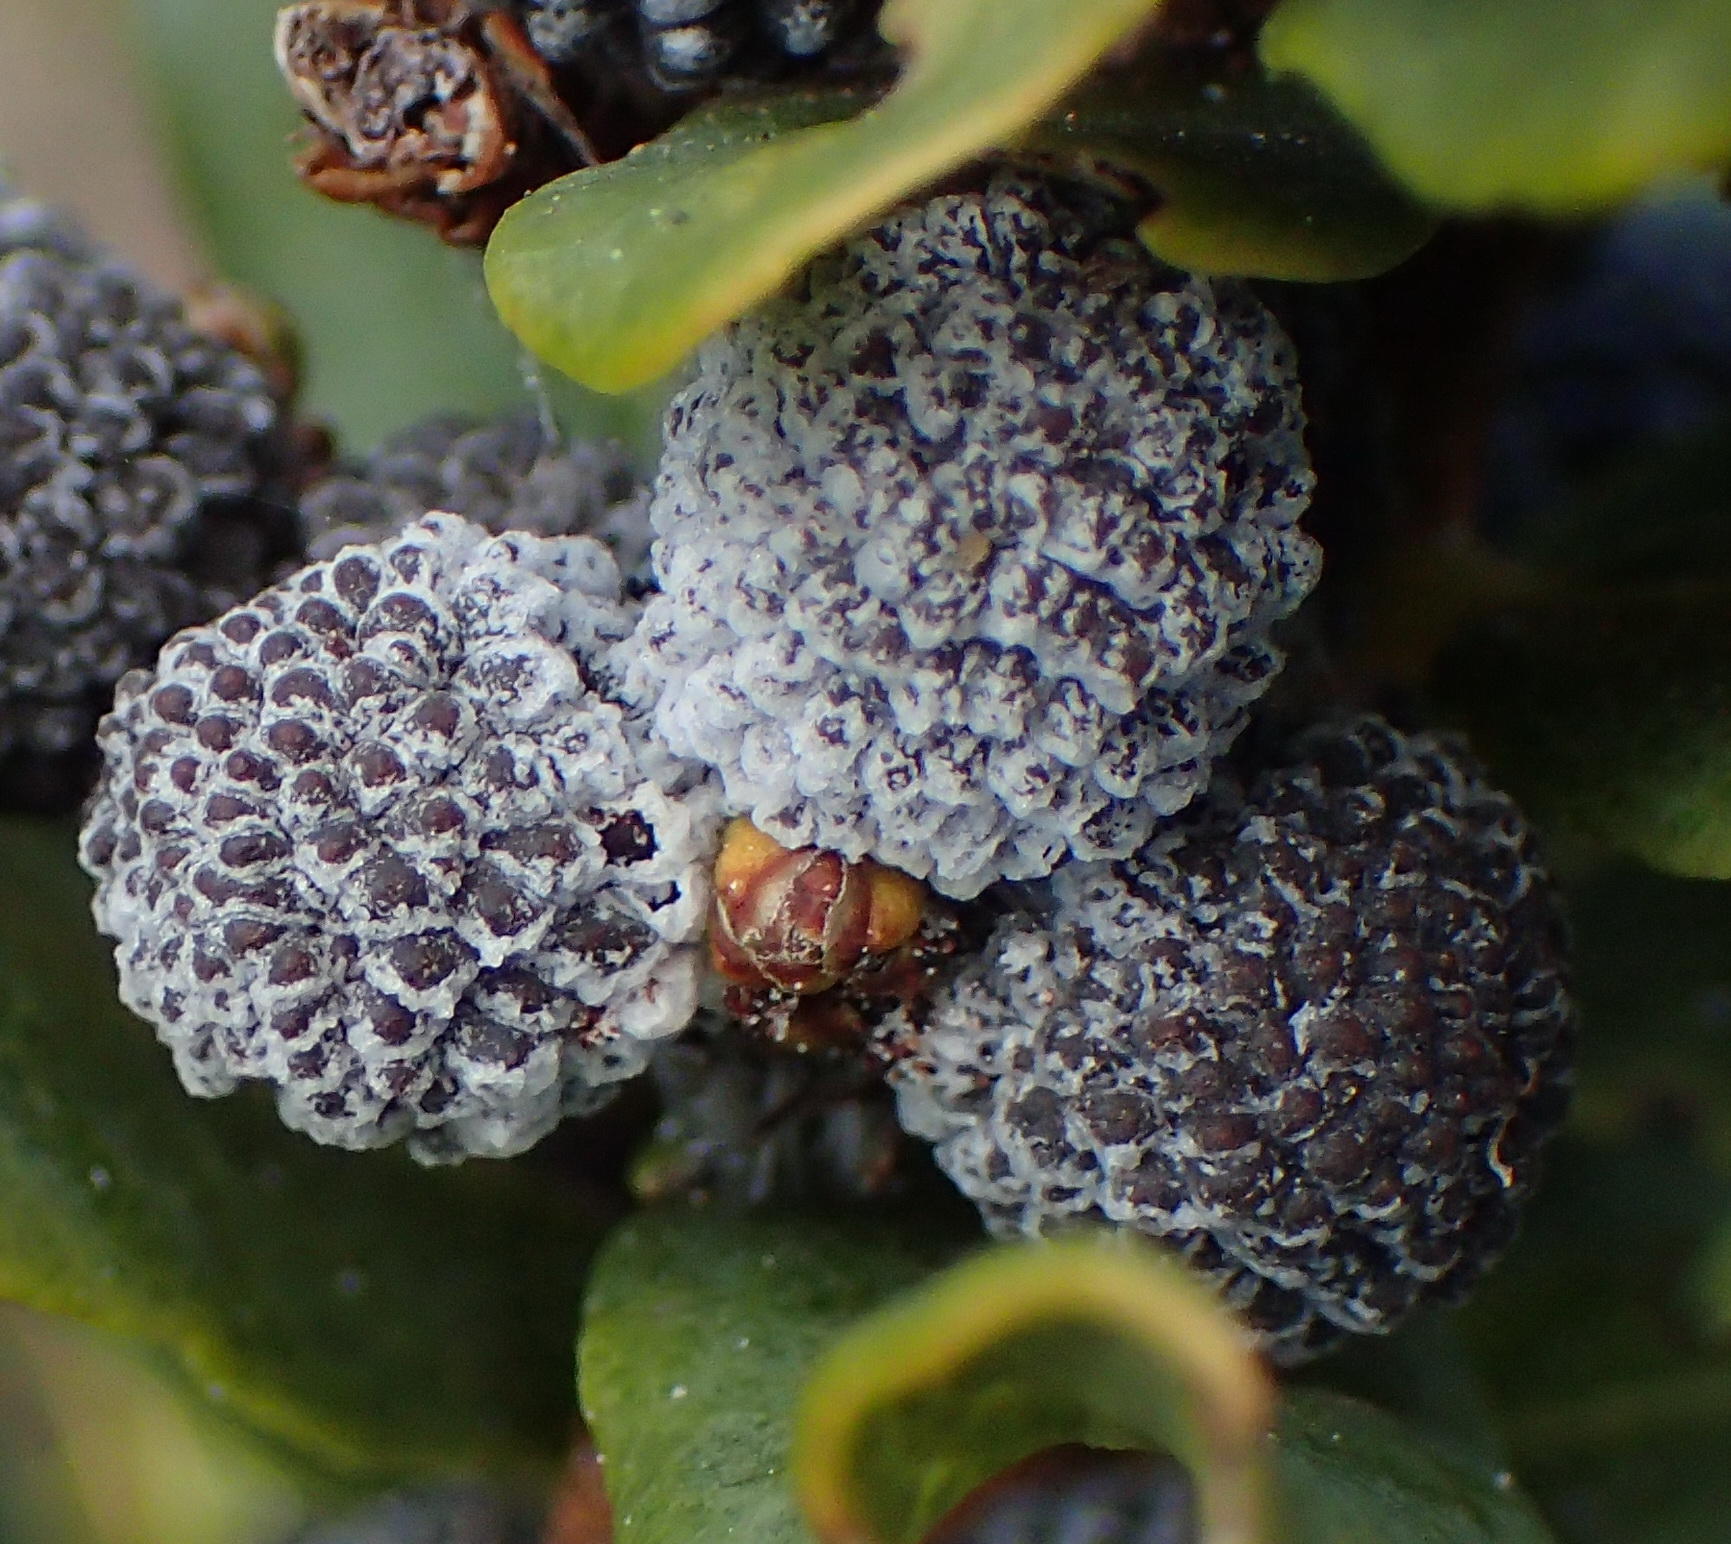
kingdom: Plantae
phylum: Tracheophyta
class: Magnoliopsida
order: Fagales
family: Myricaceae
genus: Morella
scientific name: Morella humilis
